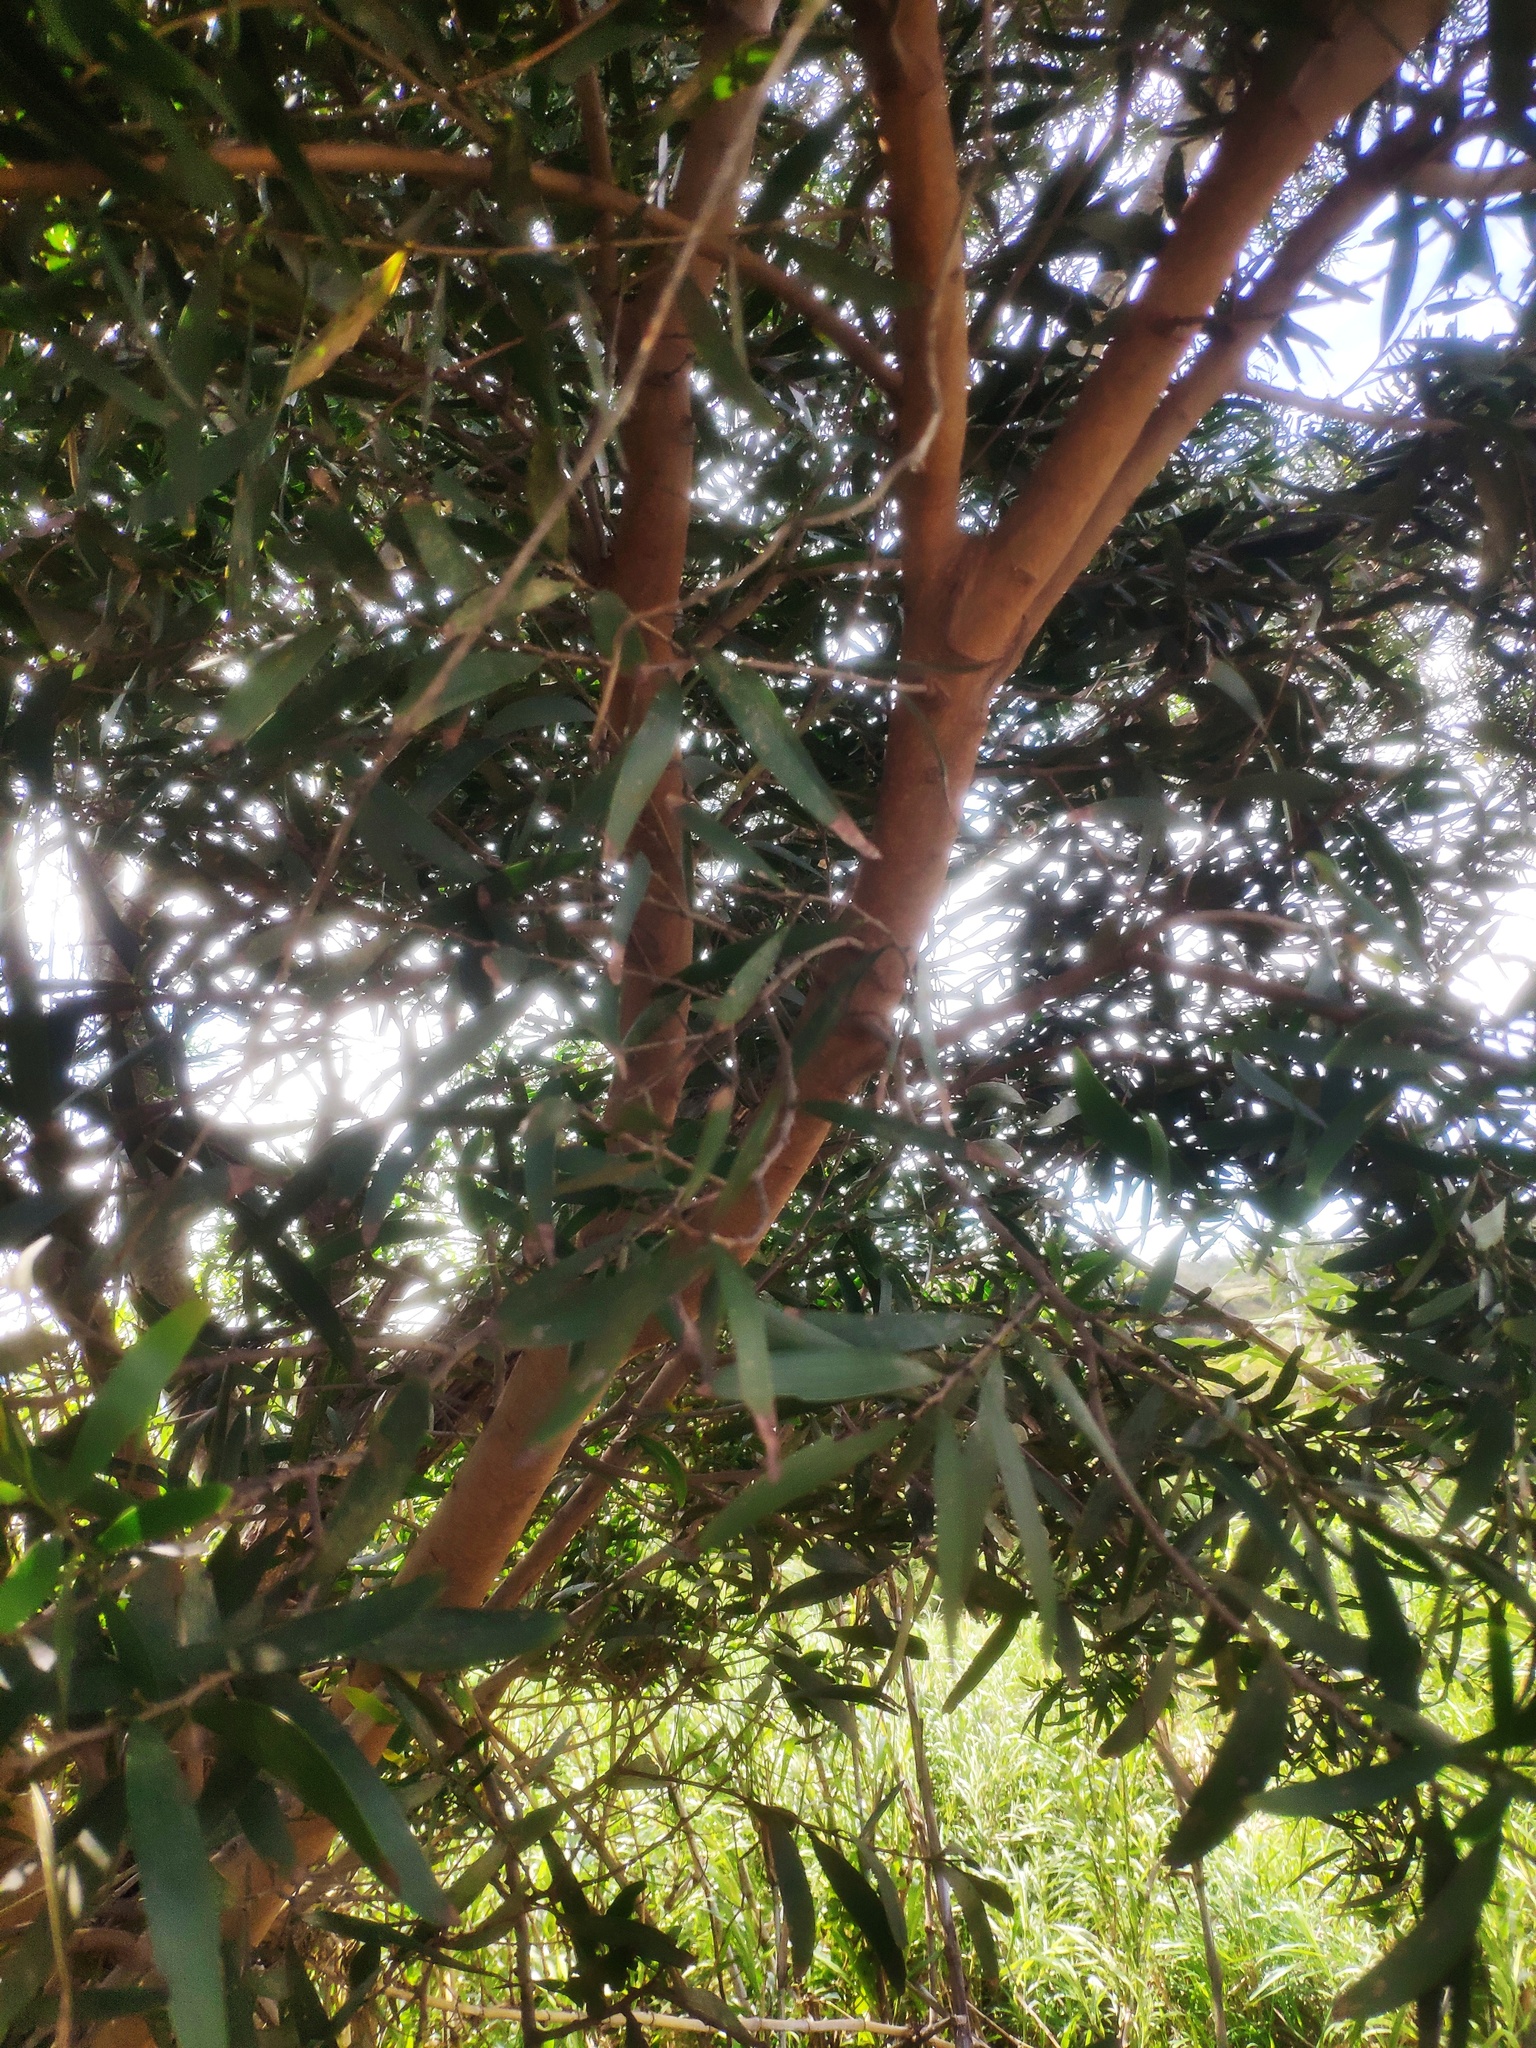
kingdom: Plantae
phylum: Tracheophyta
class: Magnoliopsida
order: Fabales
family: Fabaceae
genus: Acacia
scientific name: Acacia confusa
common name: Formosan koa
